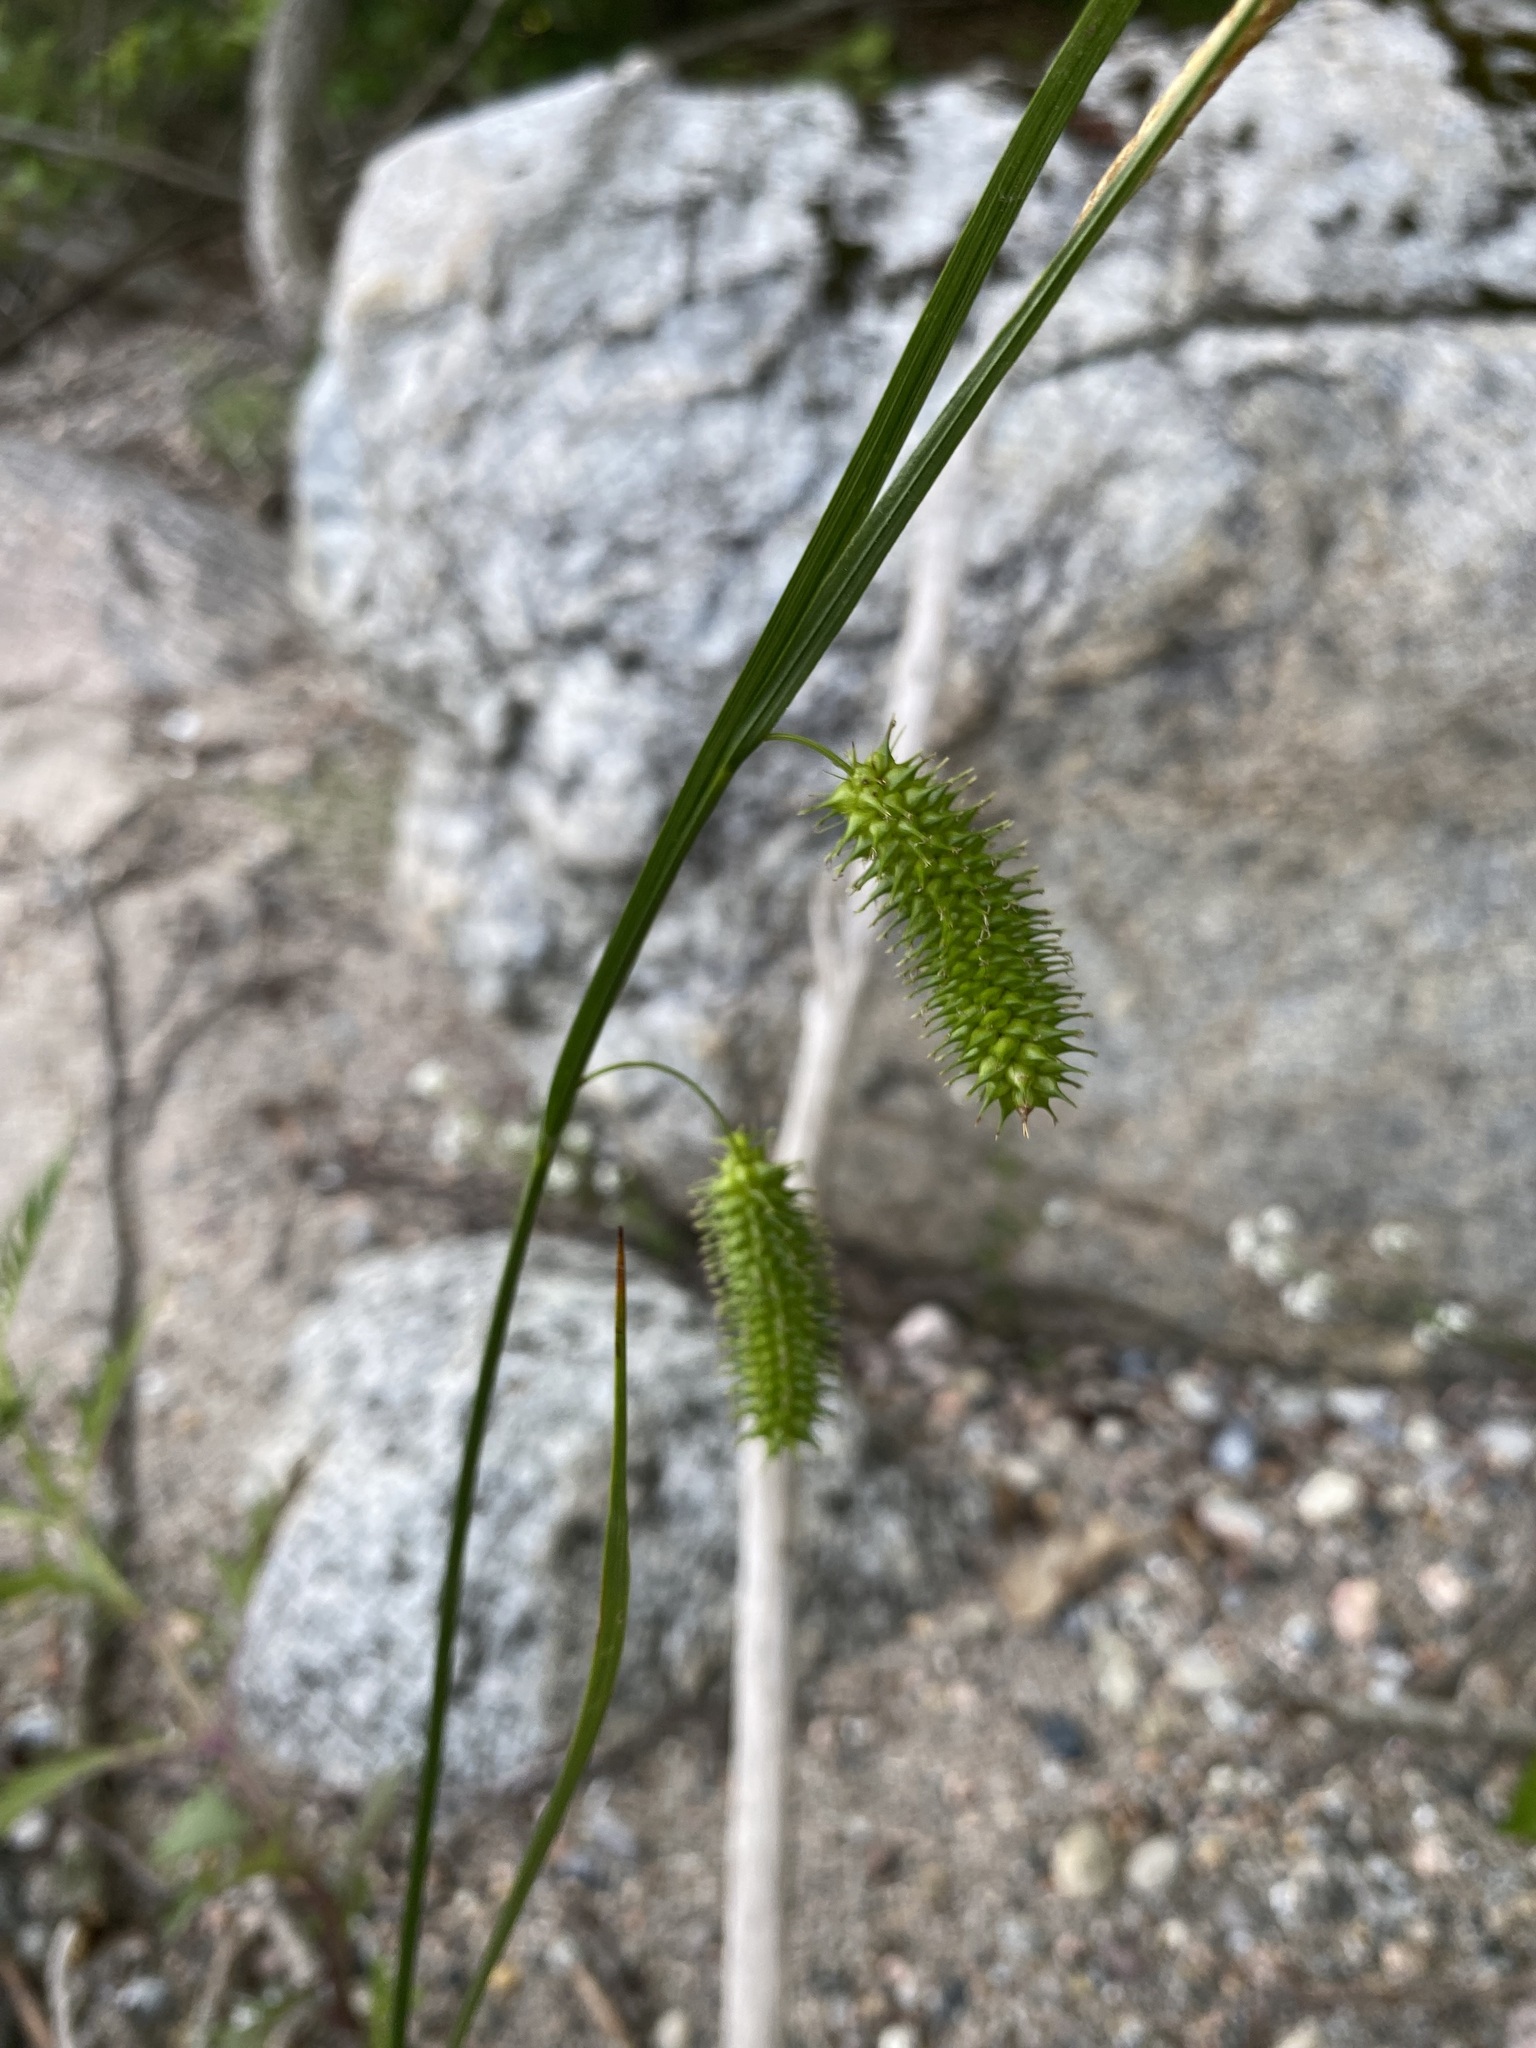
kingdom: Plantae
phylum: Tracheophyta
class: Liliopsida
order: Poales
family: Cyperaceae
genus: Carex
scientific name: Carex hystericina
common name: Bottlebrush sedge
